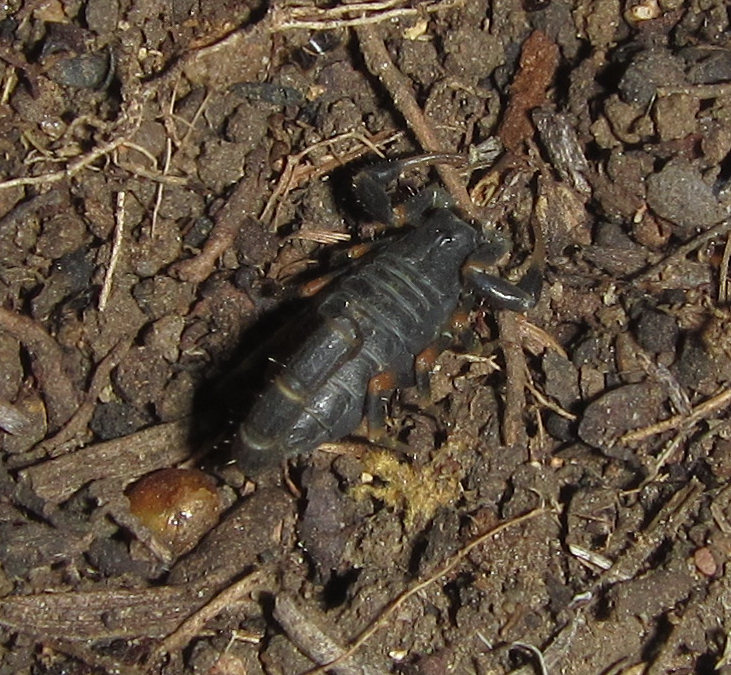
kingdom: Animalia
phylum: Arthropoda
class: Arachnida
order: Scorpiones
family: Buthidae
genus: Uroplectes
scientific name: Uroplectes triangulifer
